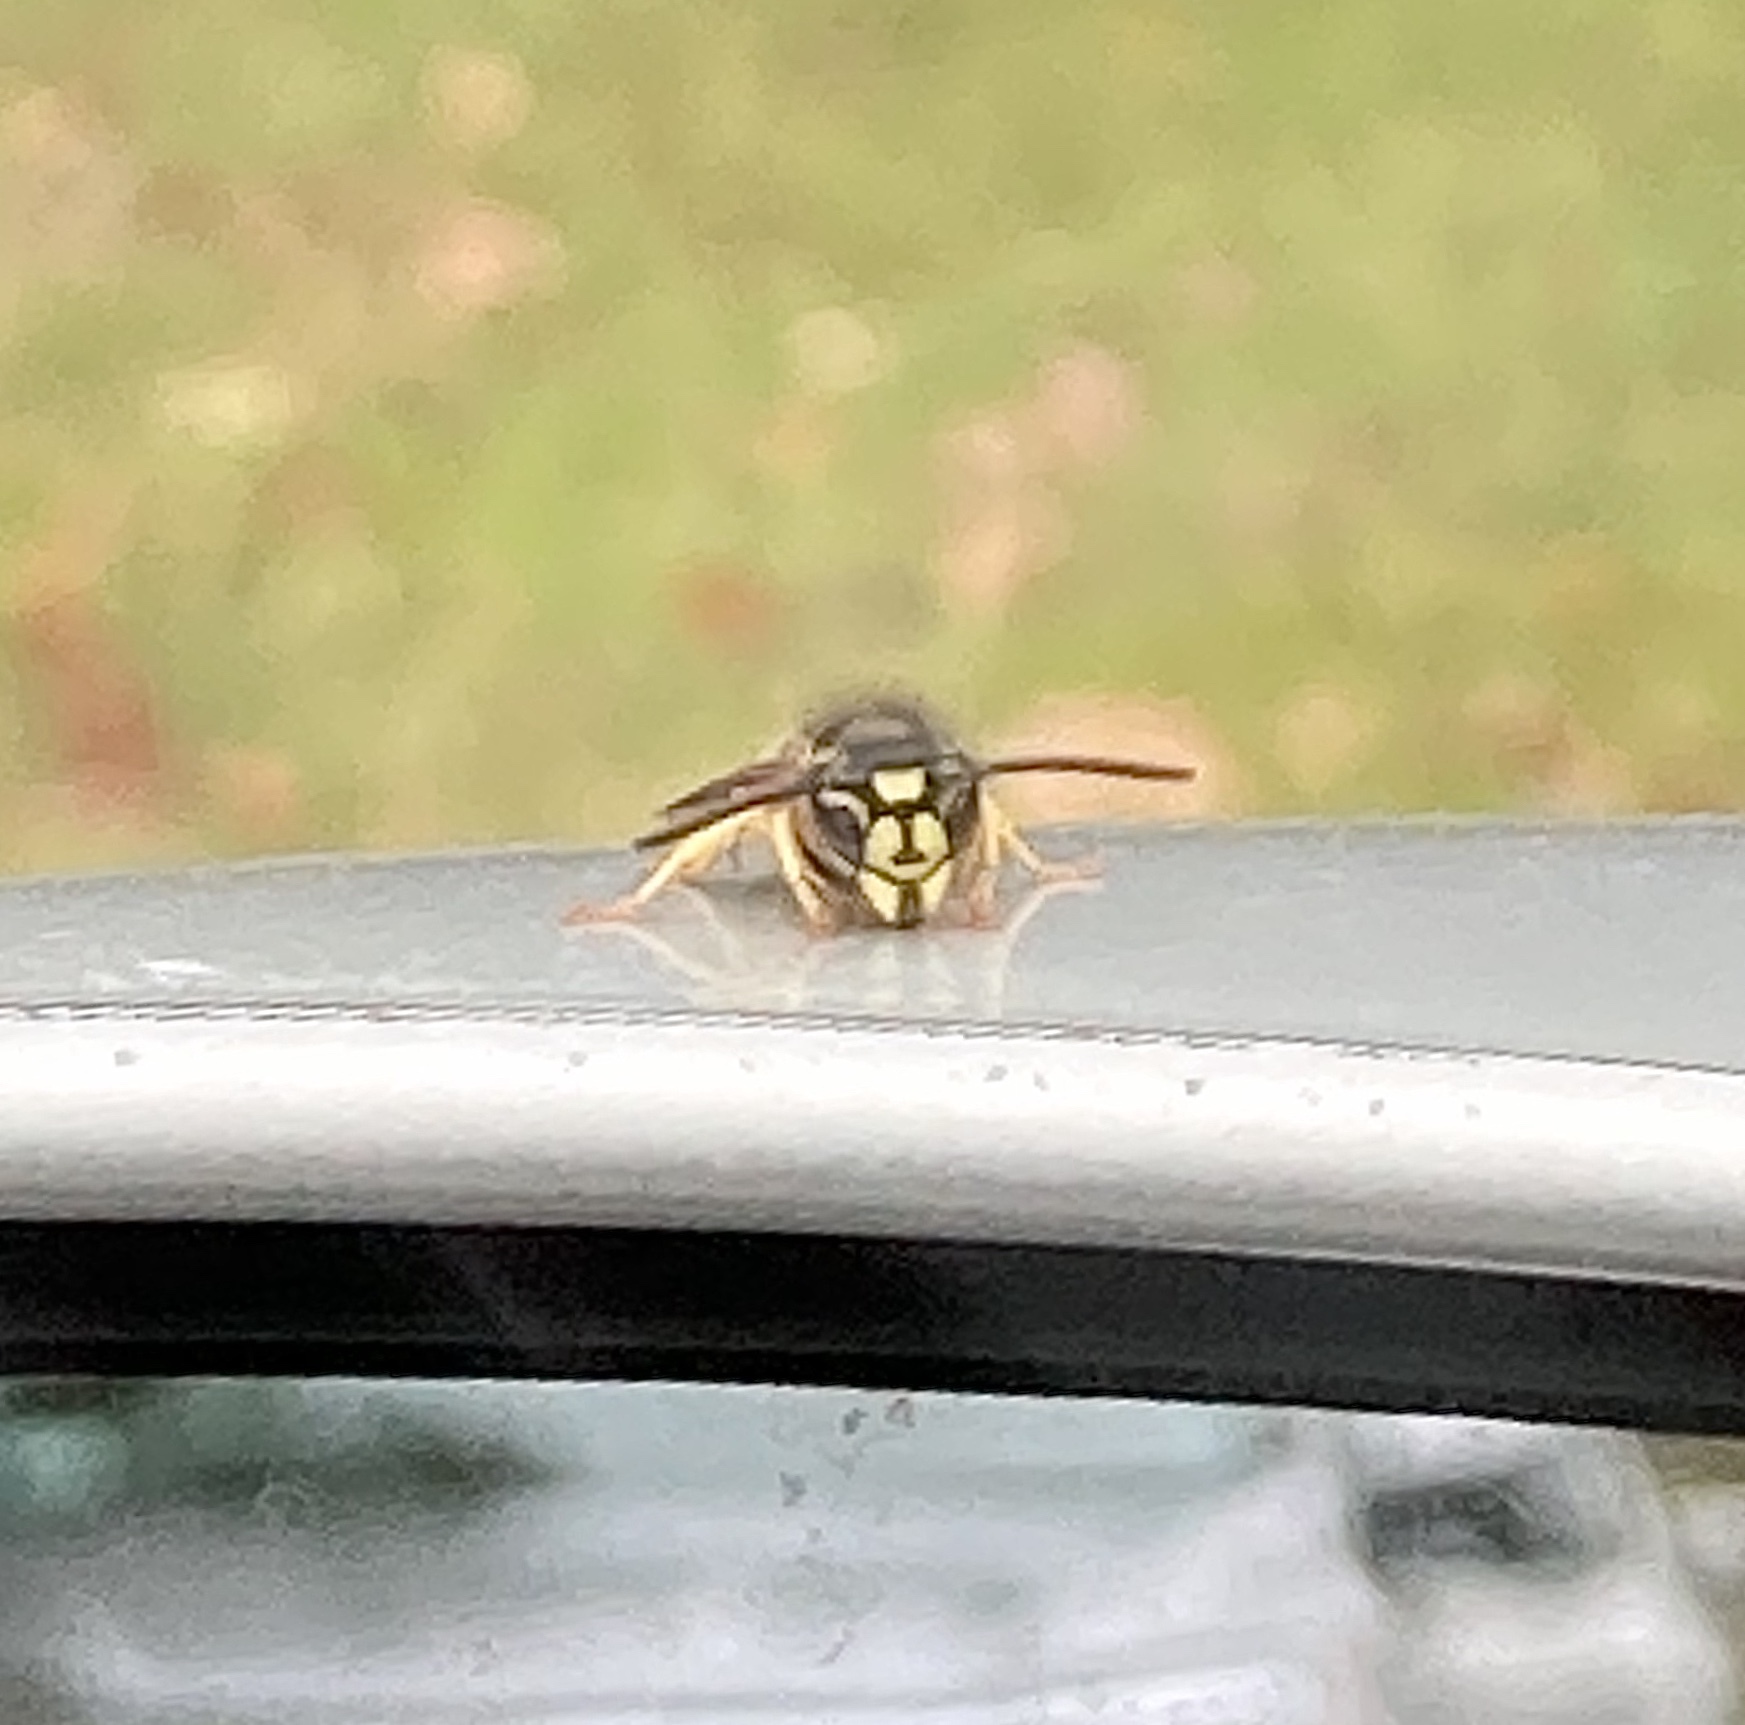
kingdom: Animalia
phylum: Arthropoda
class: Insecta
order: Hymenoptera
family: Vespidae
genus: Vespula
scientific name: Vespula maculifrons
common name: Eastern yellowjacket
